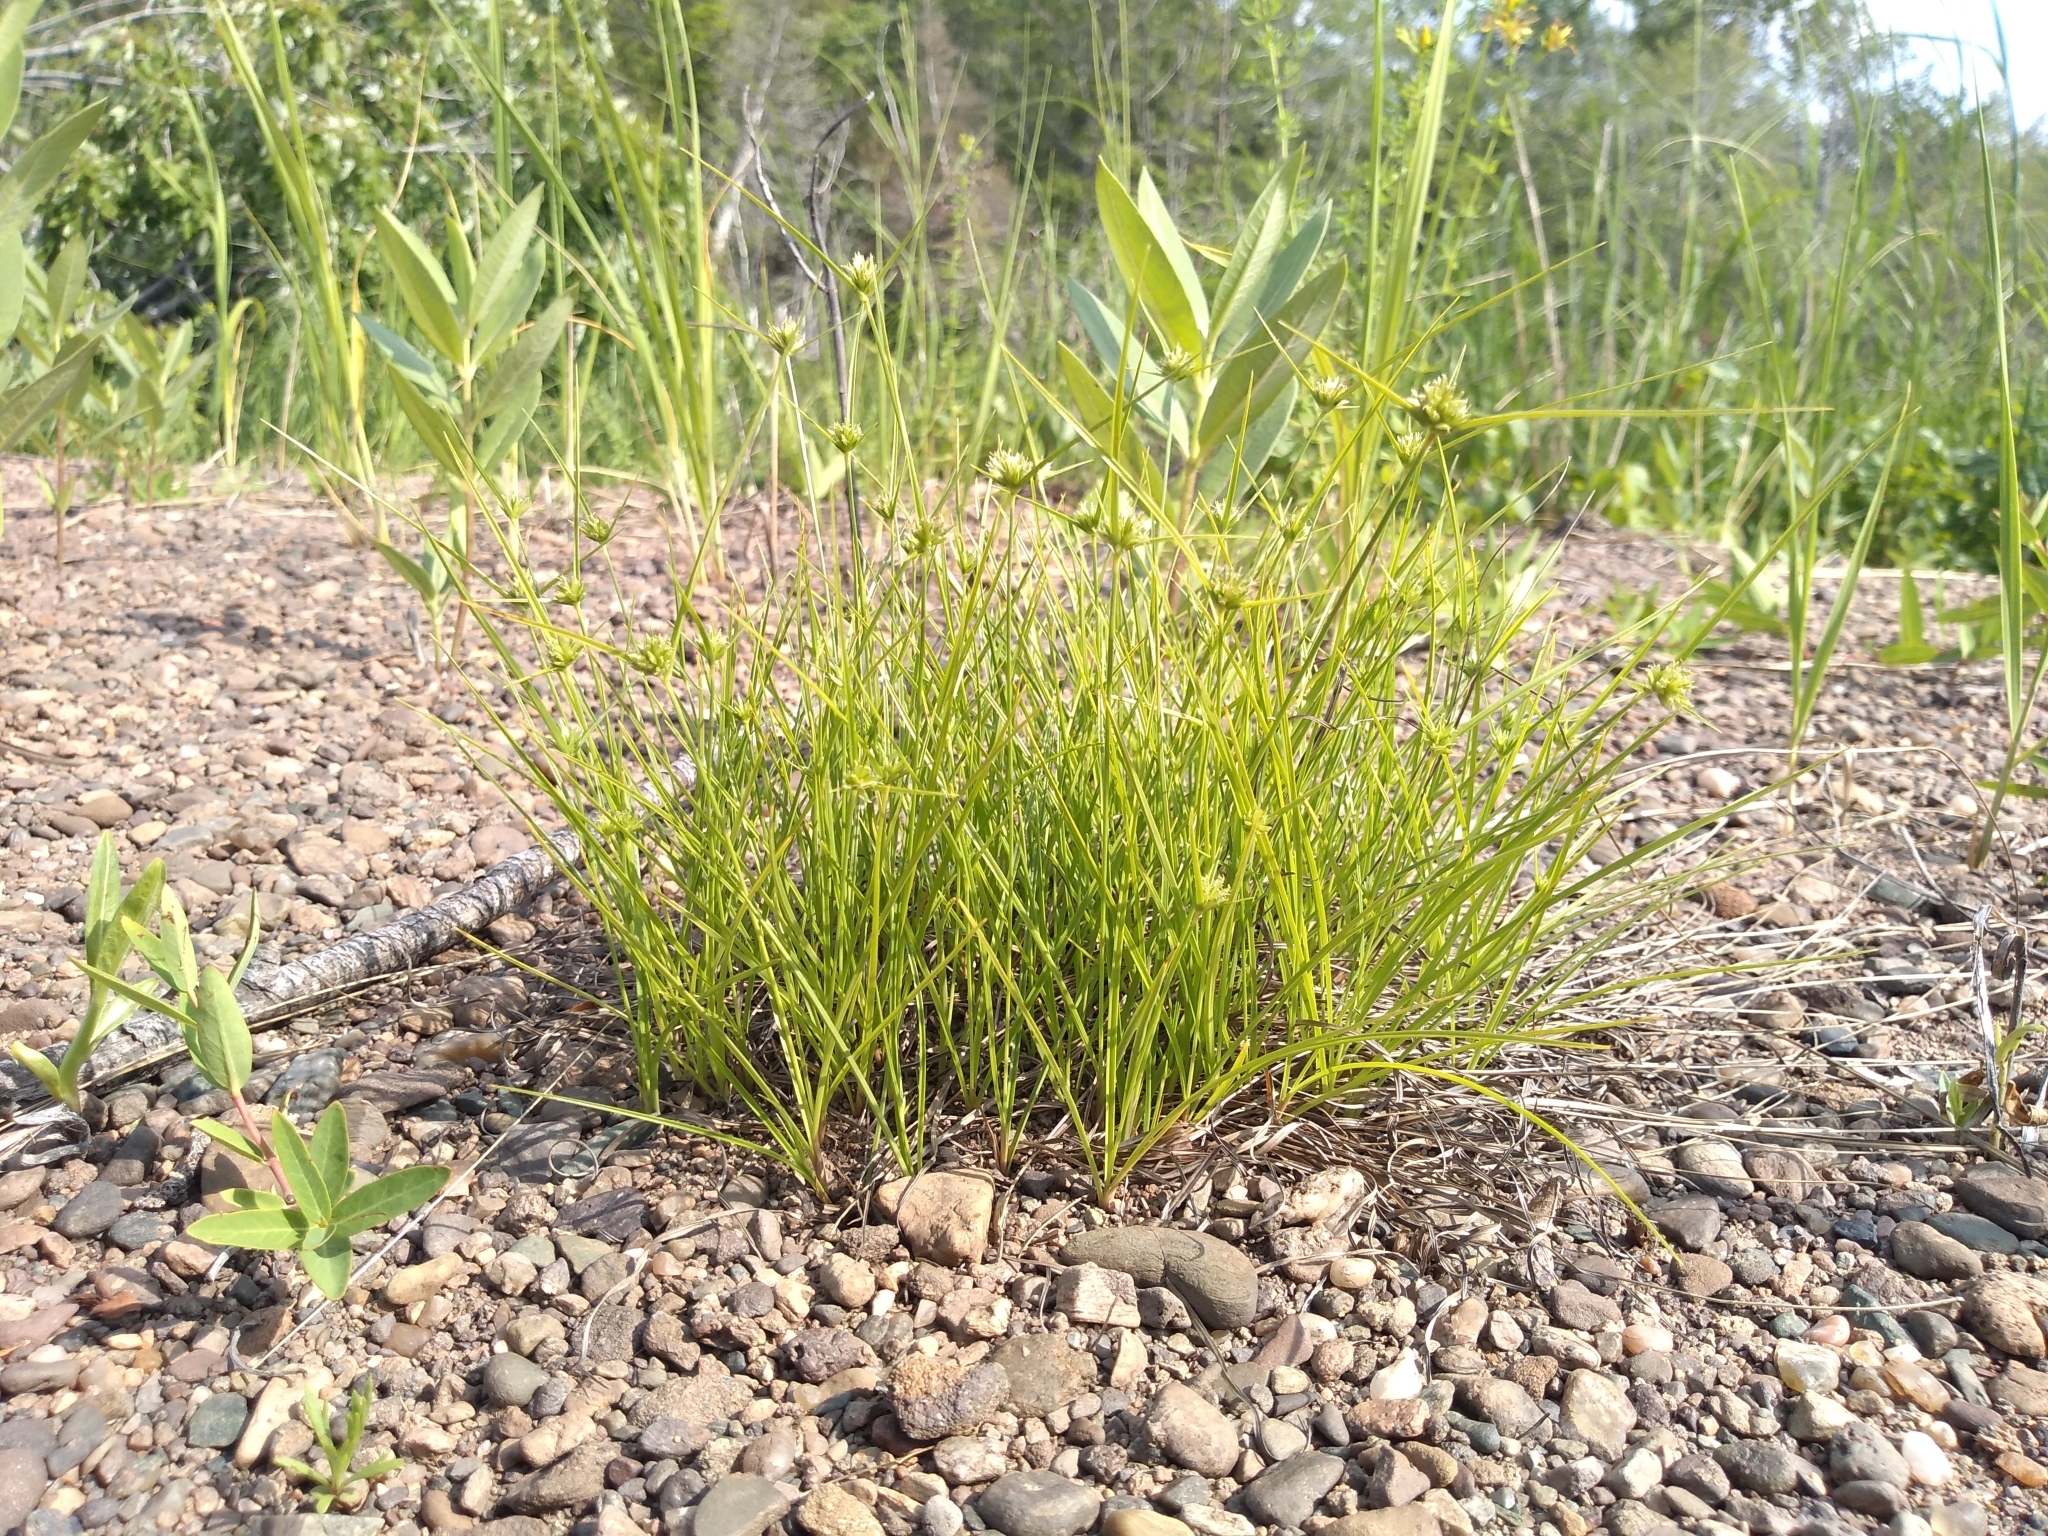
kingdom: Plantae
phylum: Tracheophyta
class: Liliopsida
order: Poales
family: Cyperaceae
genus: Cyperus
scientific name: Cyperus lupulinus
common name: Great plains flatsedge
